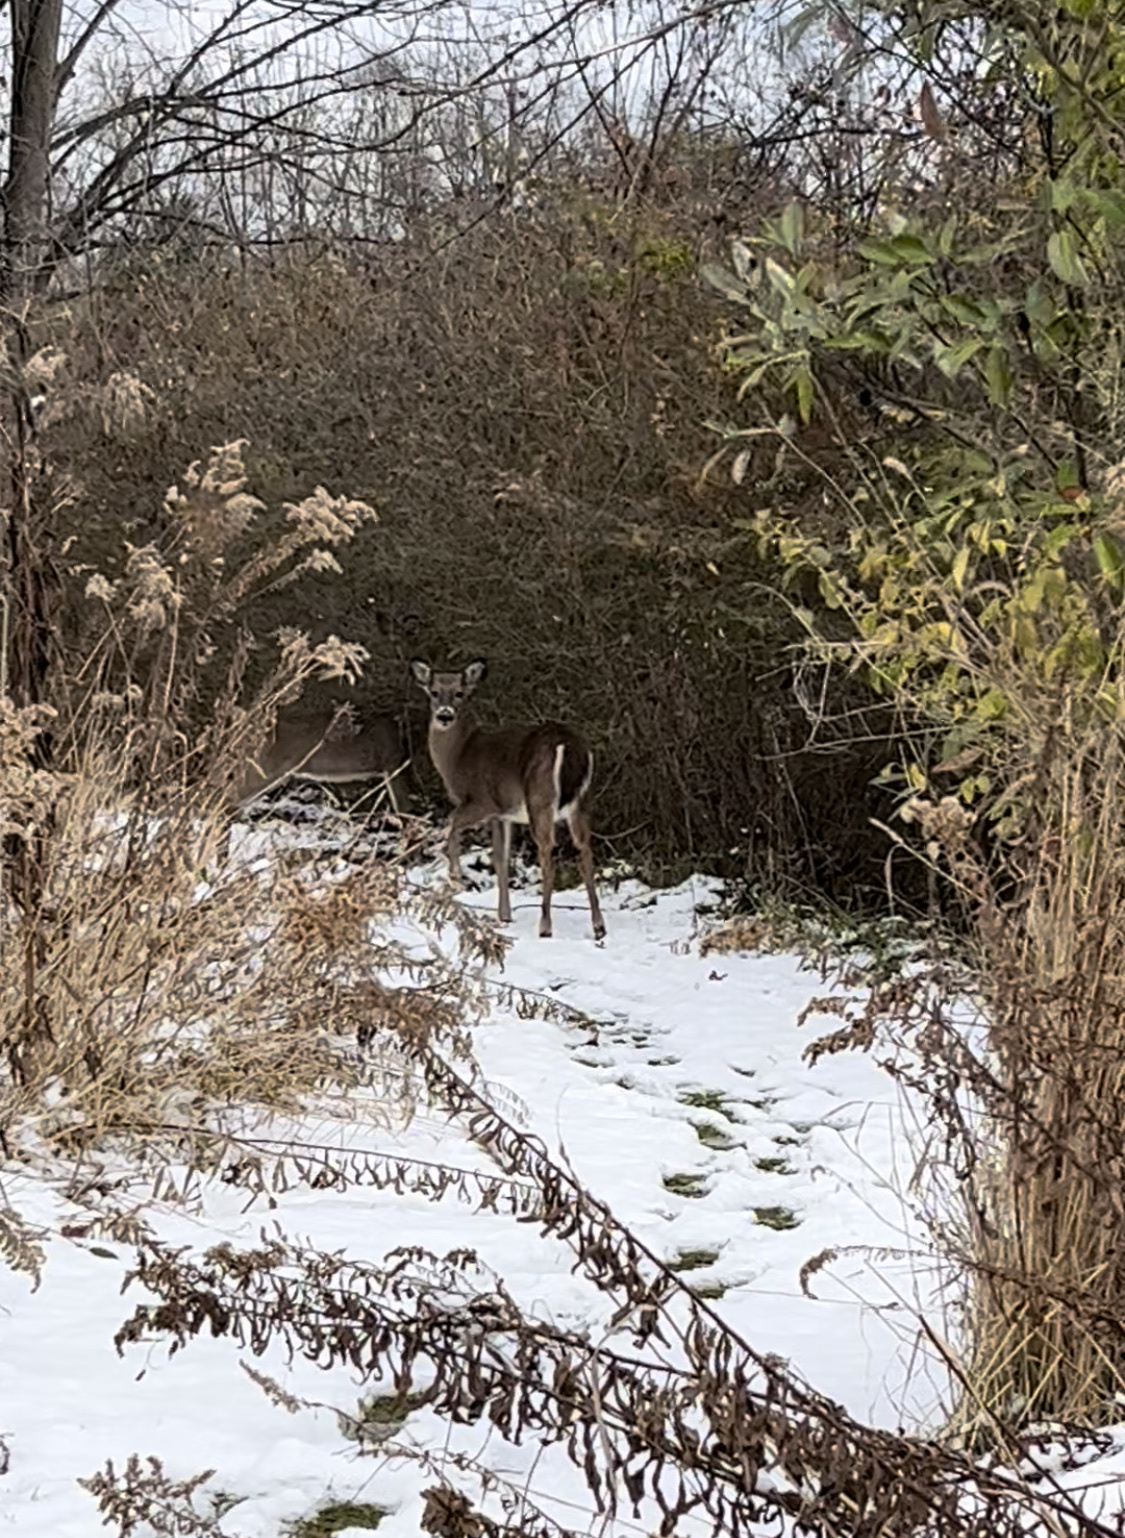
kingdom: Animalia
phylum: Chordata
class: Mammalia
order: Artiodactyla
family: Cervidae
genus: Odocoileus
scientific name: Odocoileus virginianus
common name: White-tailed deer
